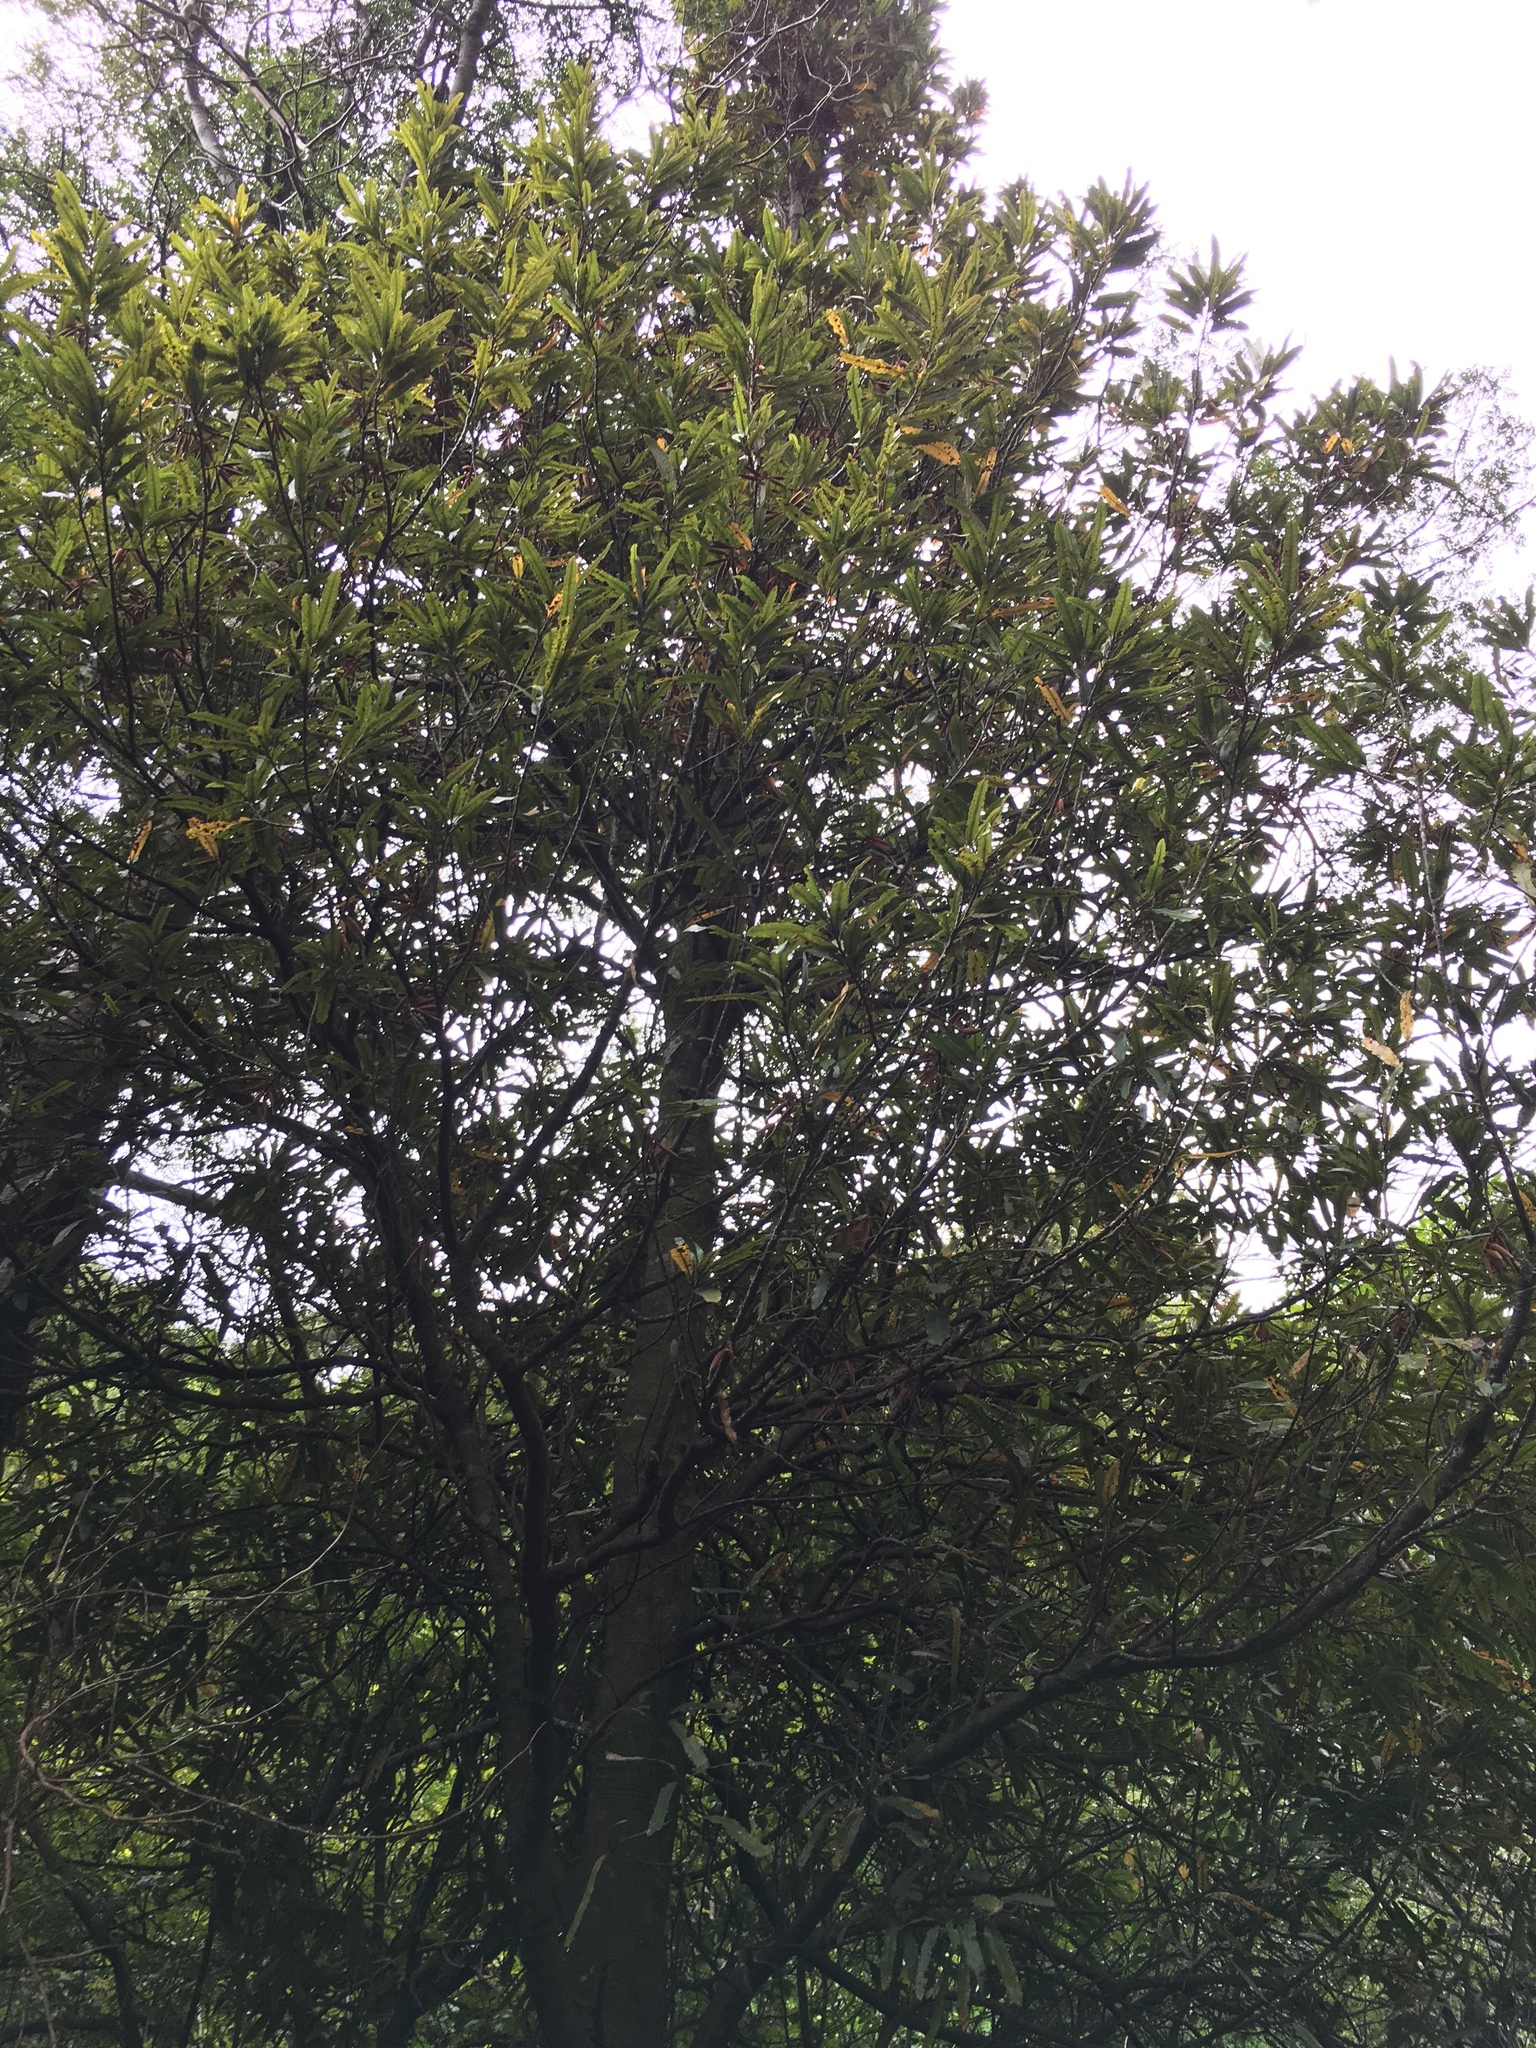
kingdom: Plantae
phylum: Tracheophyta
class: Magnoliopsida
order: Proteales
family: Proteaceae
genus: Knightia
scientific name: Knightia excelsa
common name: New zealand-honeysuckle
